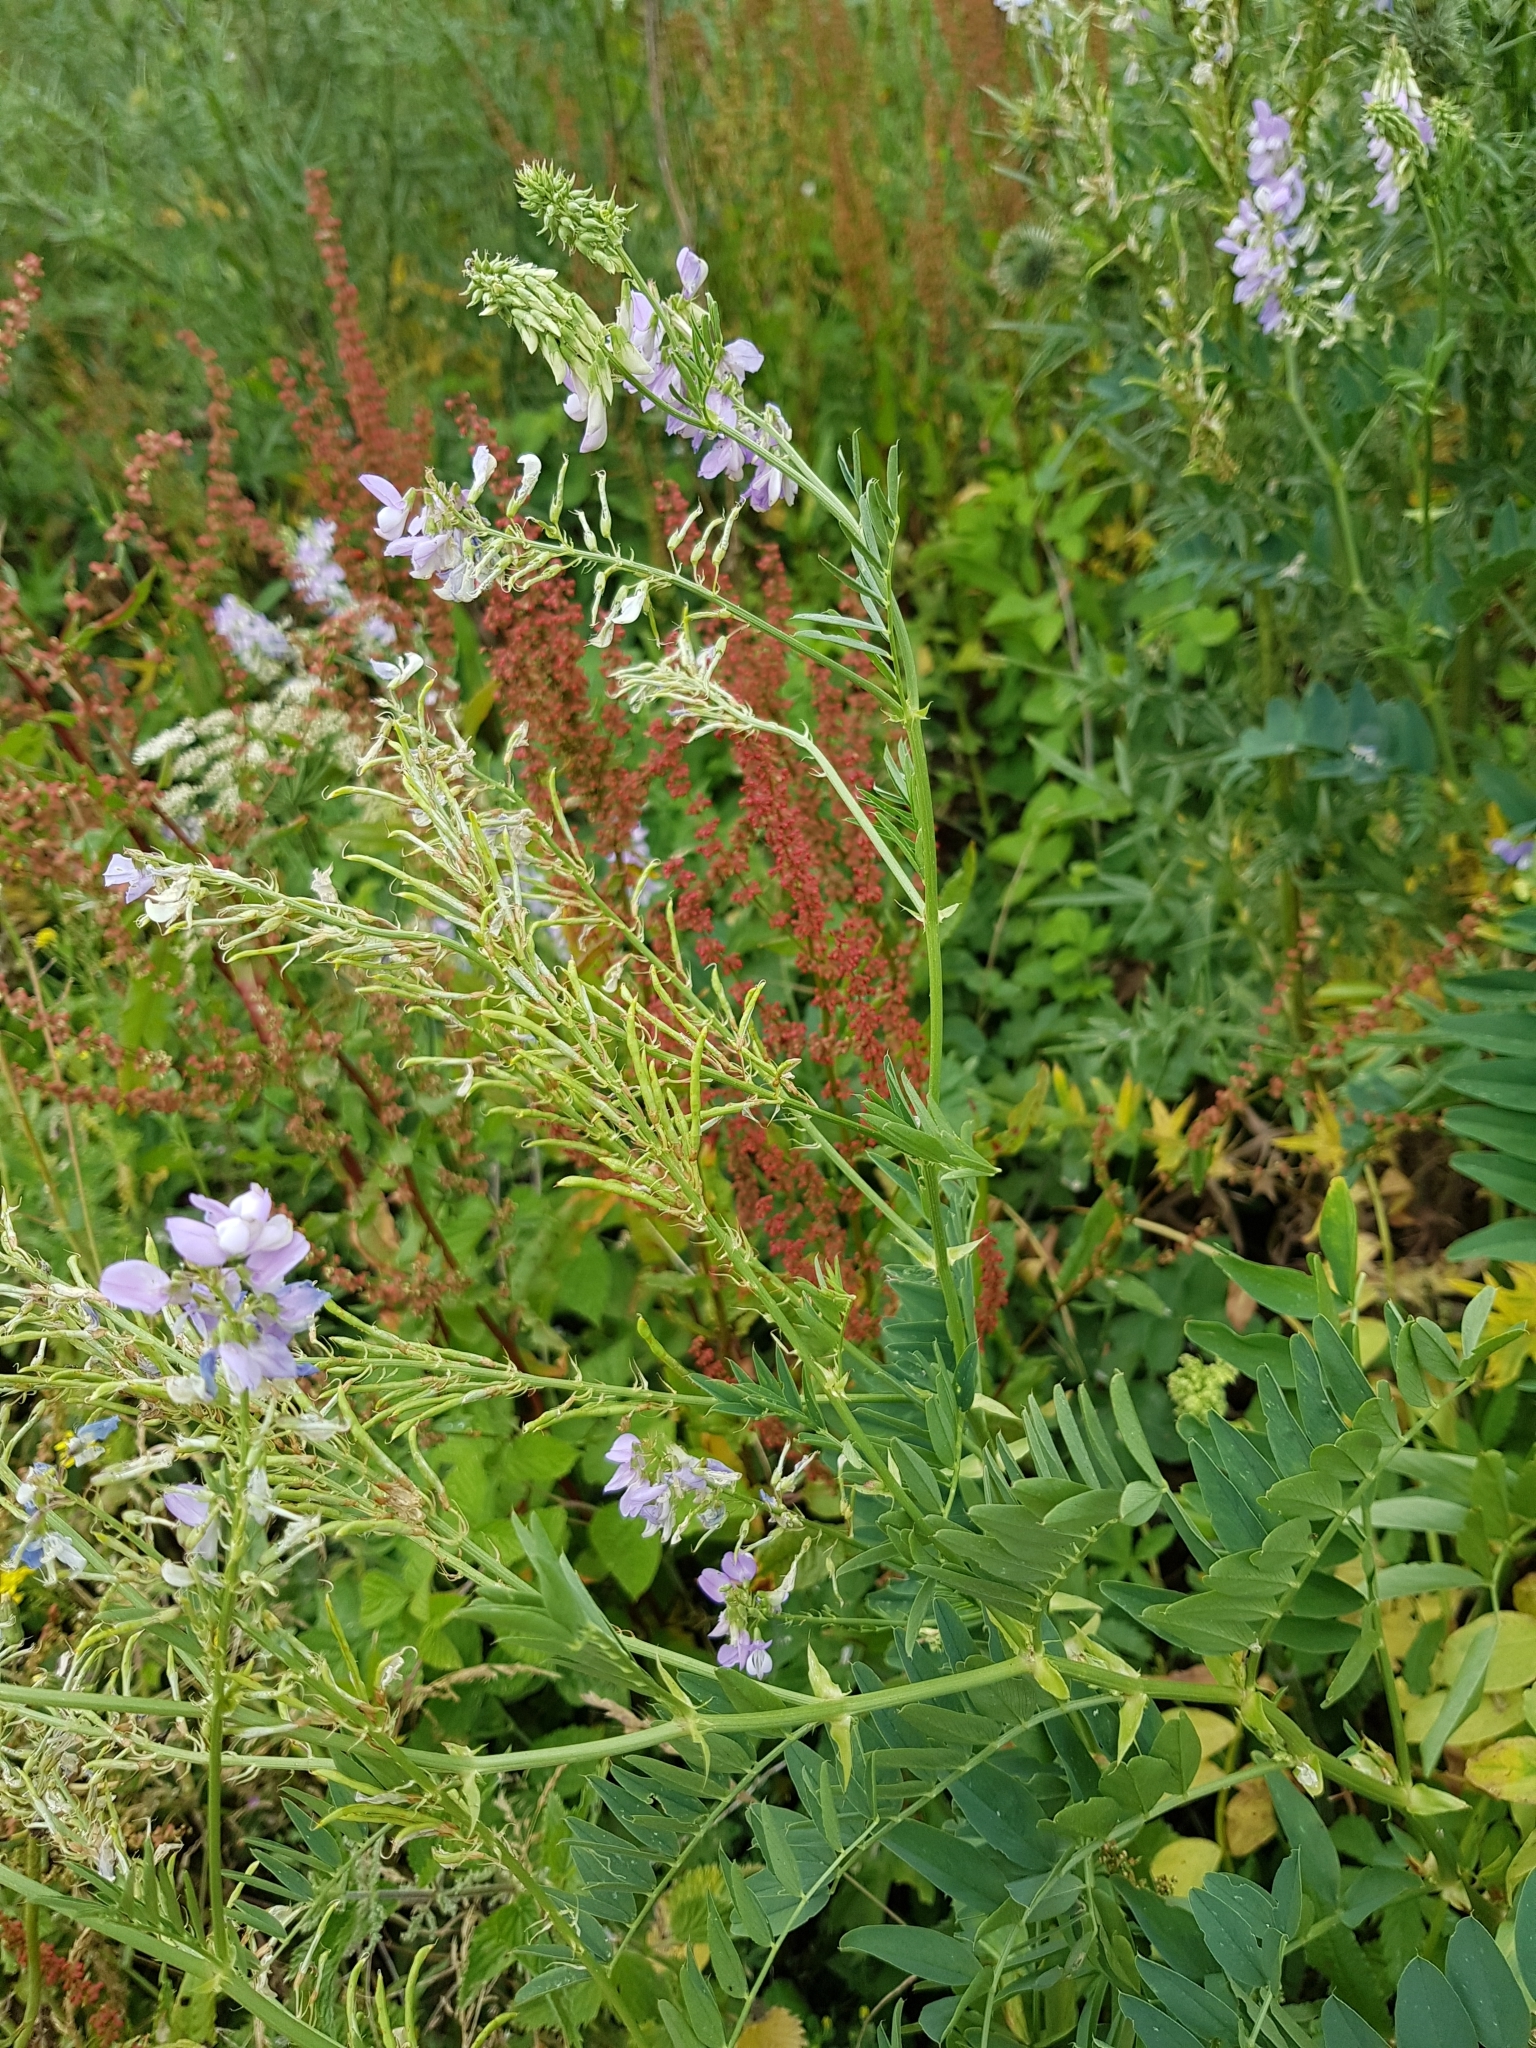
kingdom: Plantae
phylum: Tracheophyta
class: Magnoliopsida
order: Fabales
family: Fabaceae
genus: Galega
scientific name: Galega officinalis
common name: Goat's-rue
